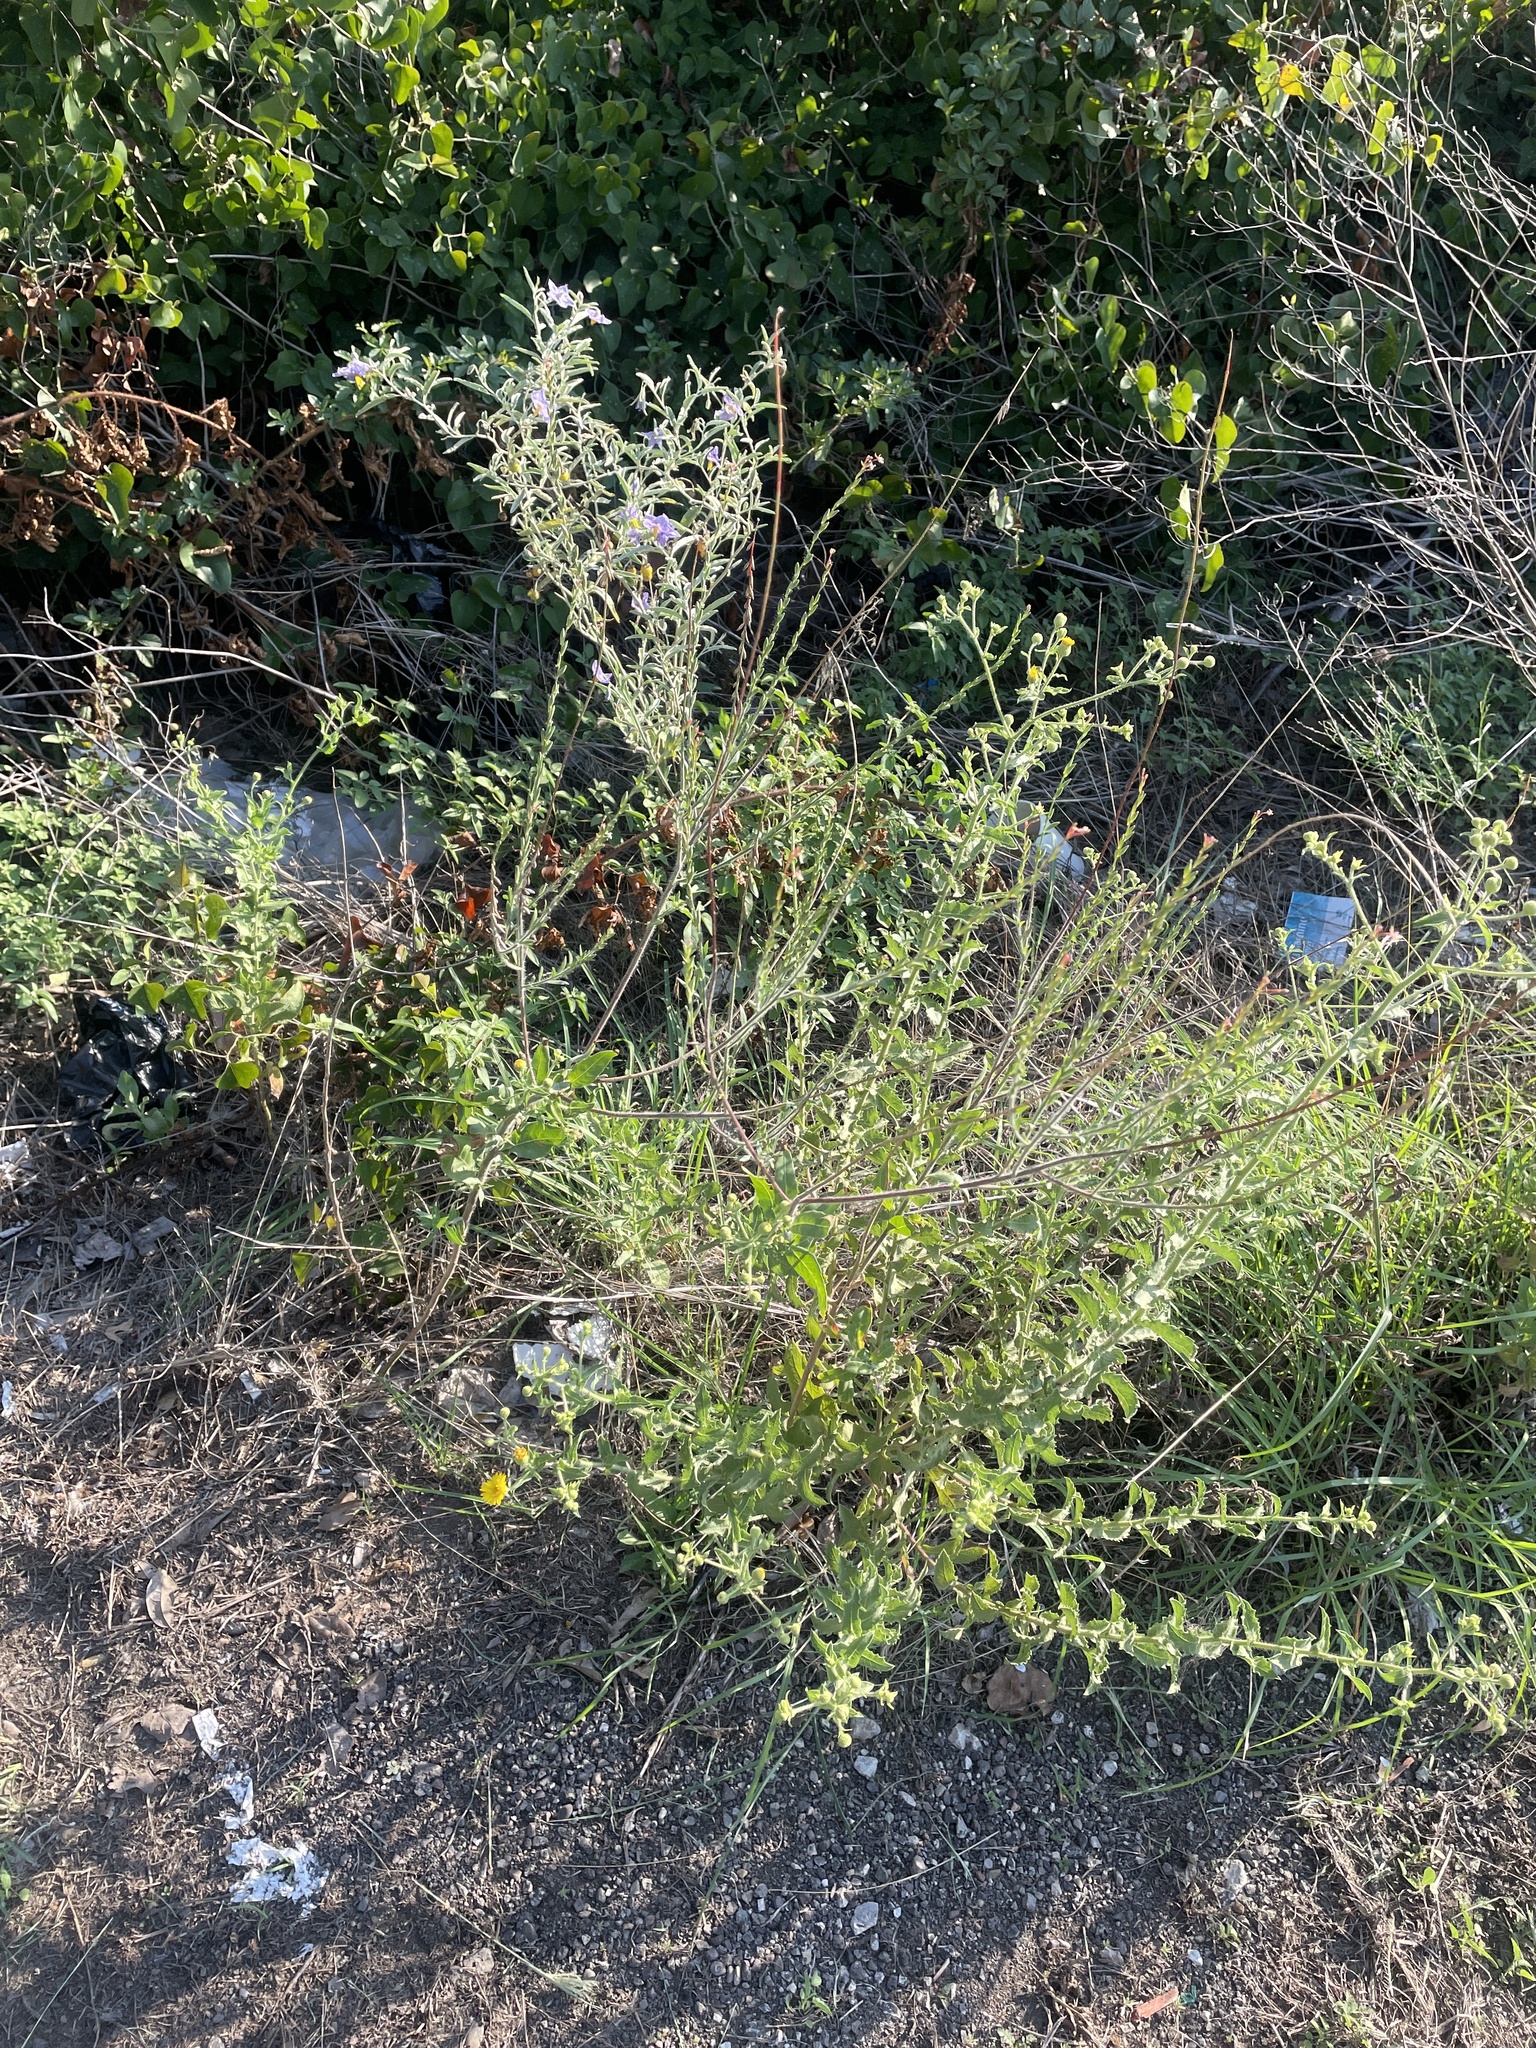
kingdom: Plantae
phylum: Tracheophyta
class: Magnoliopsida
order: Myrtales
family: Onagraceae
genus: Oenothera
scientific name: Oenothera curtiflora
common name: Velvetweed
